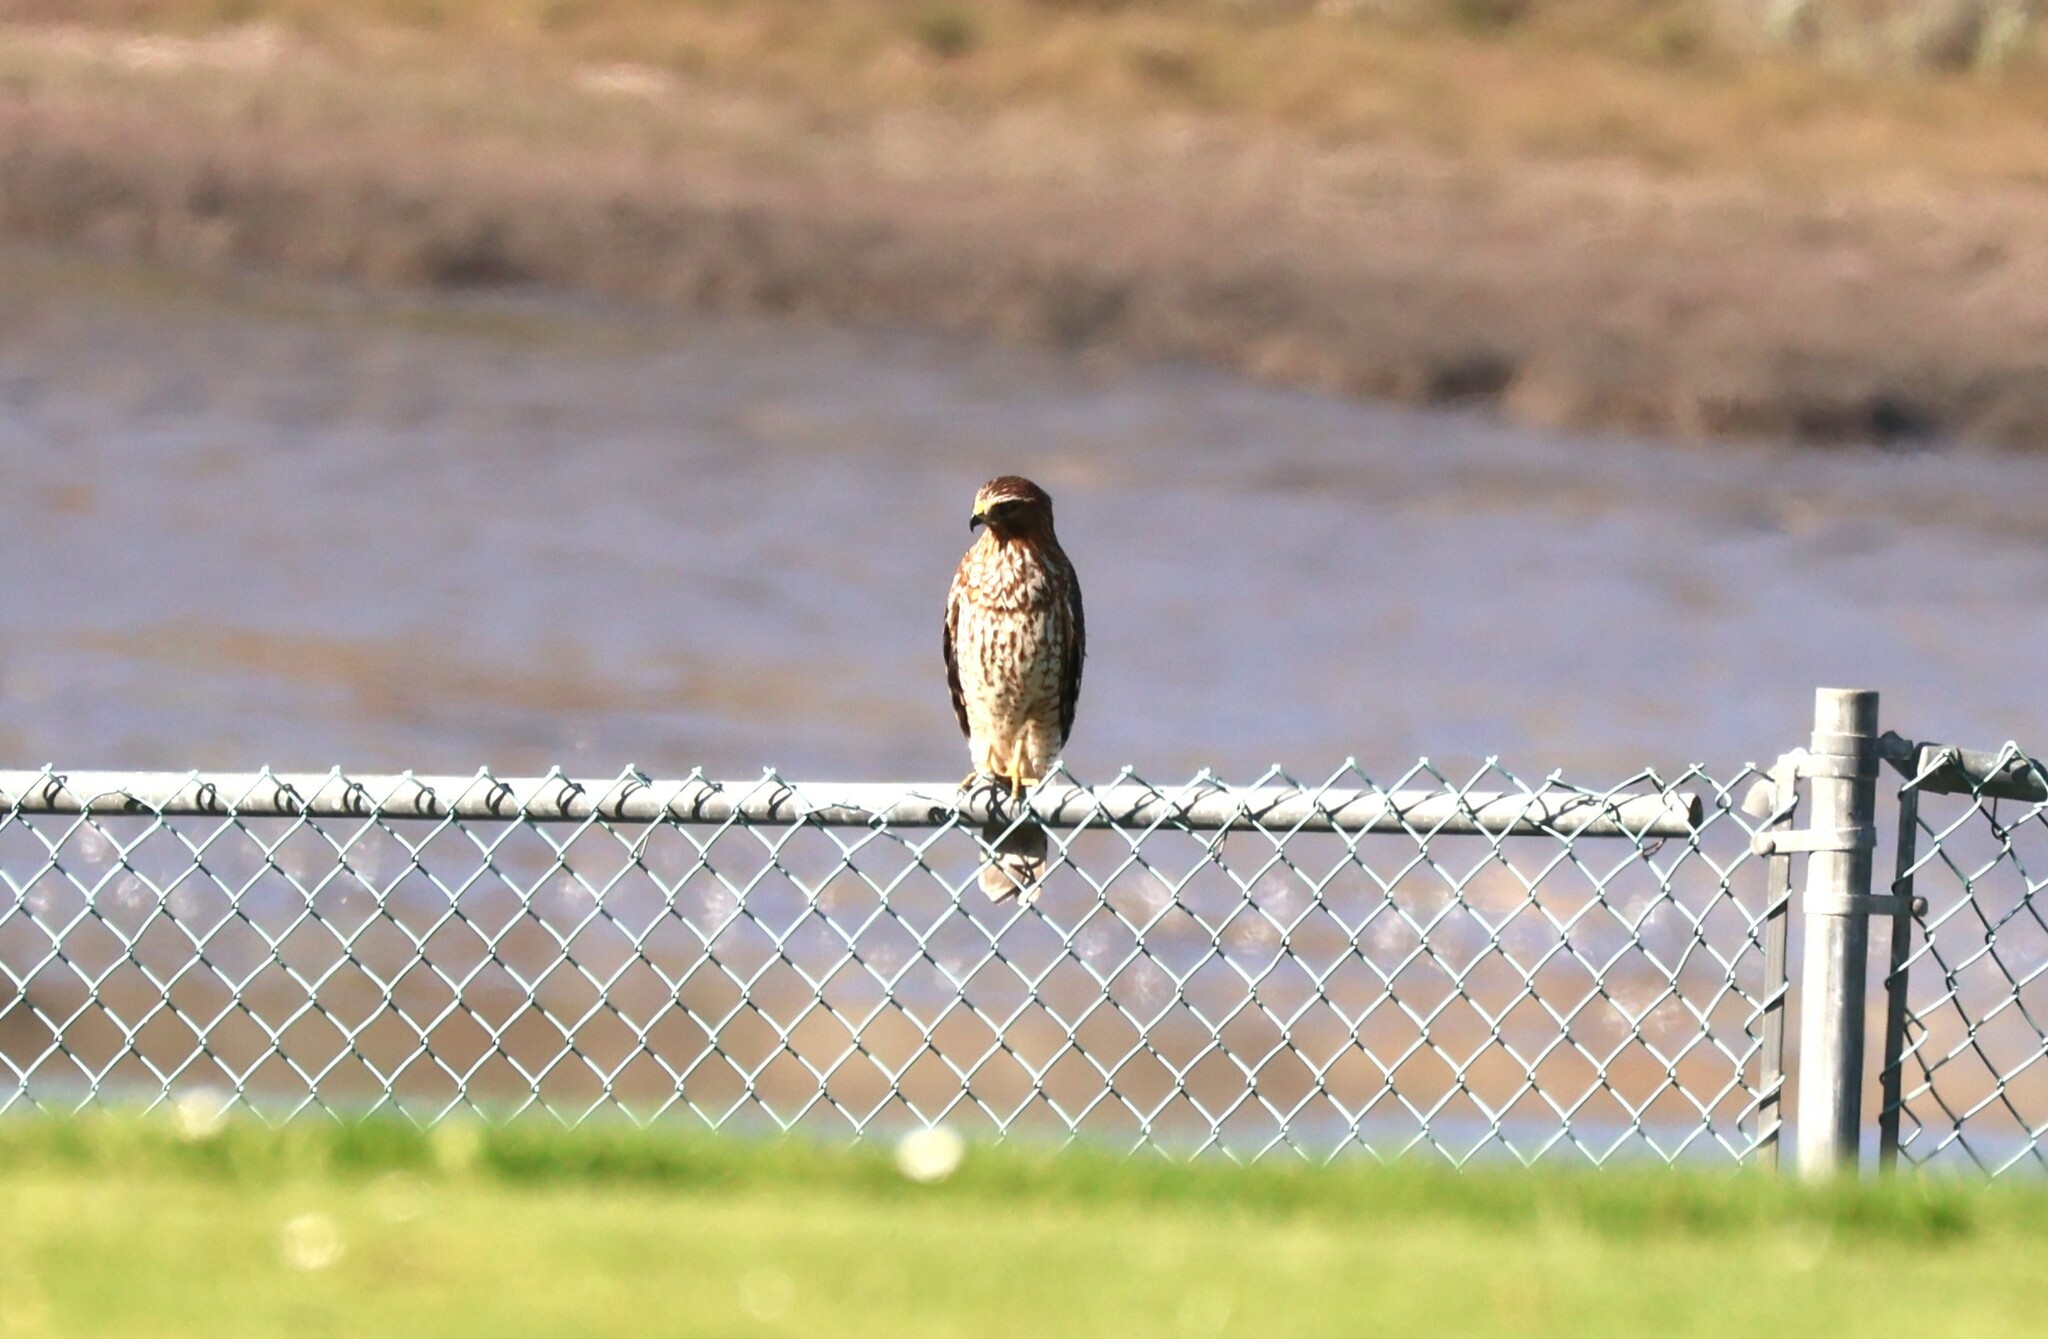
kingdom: Animalia
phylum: Chordata
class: Aves
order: Accipitriformes
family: Accipitridae
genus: Buteo
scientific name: Buteo lineatus
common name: Red-shouldered hawk
